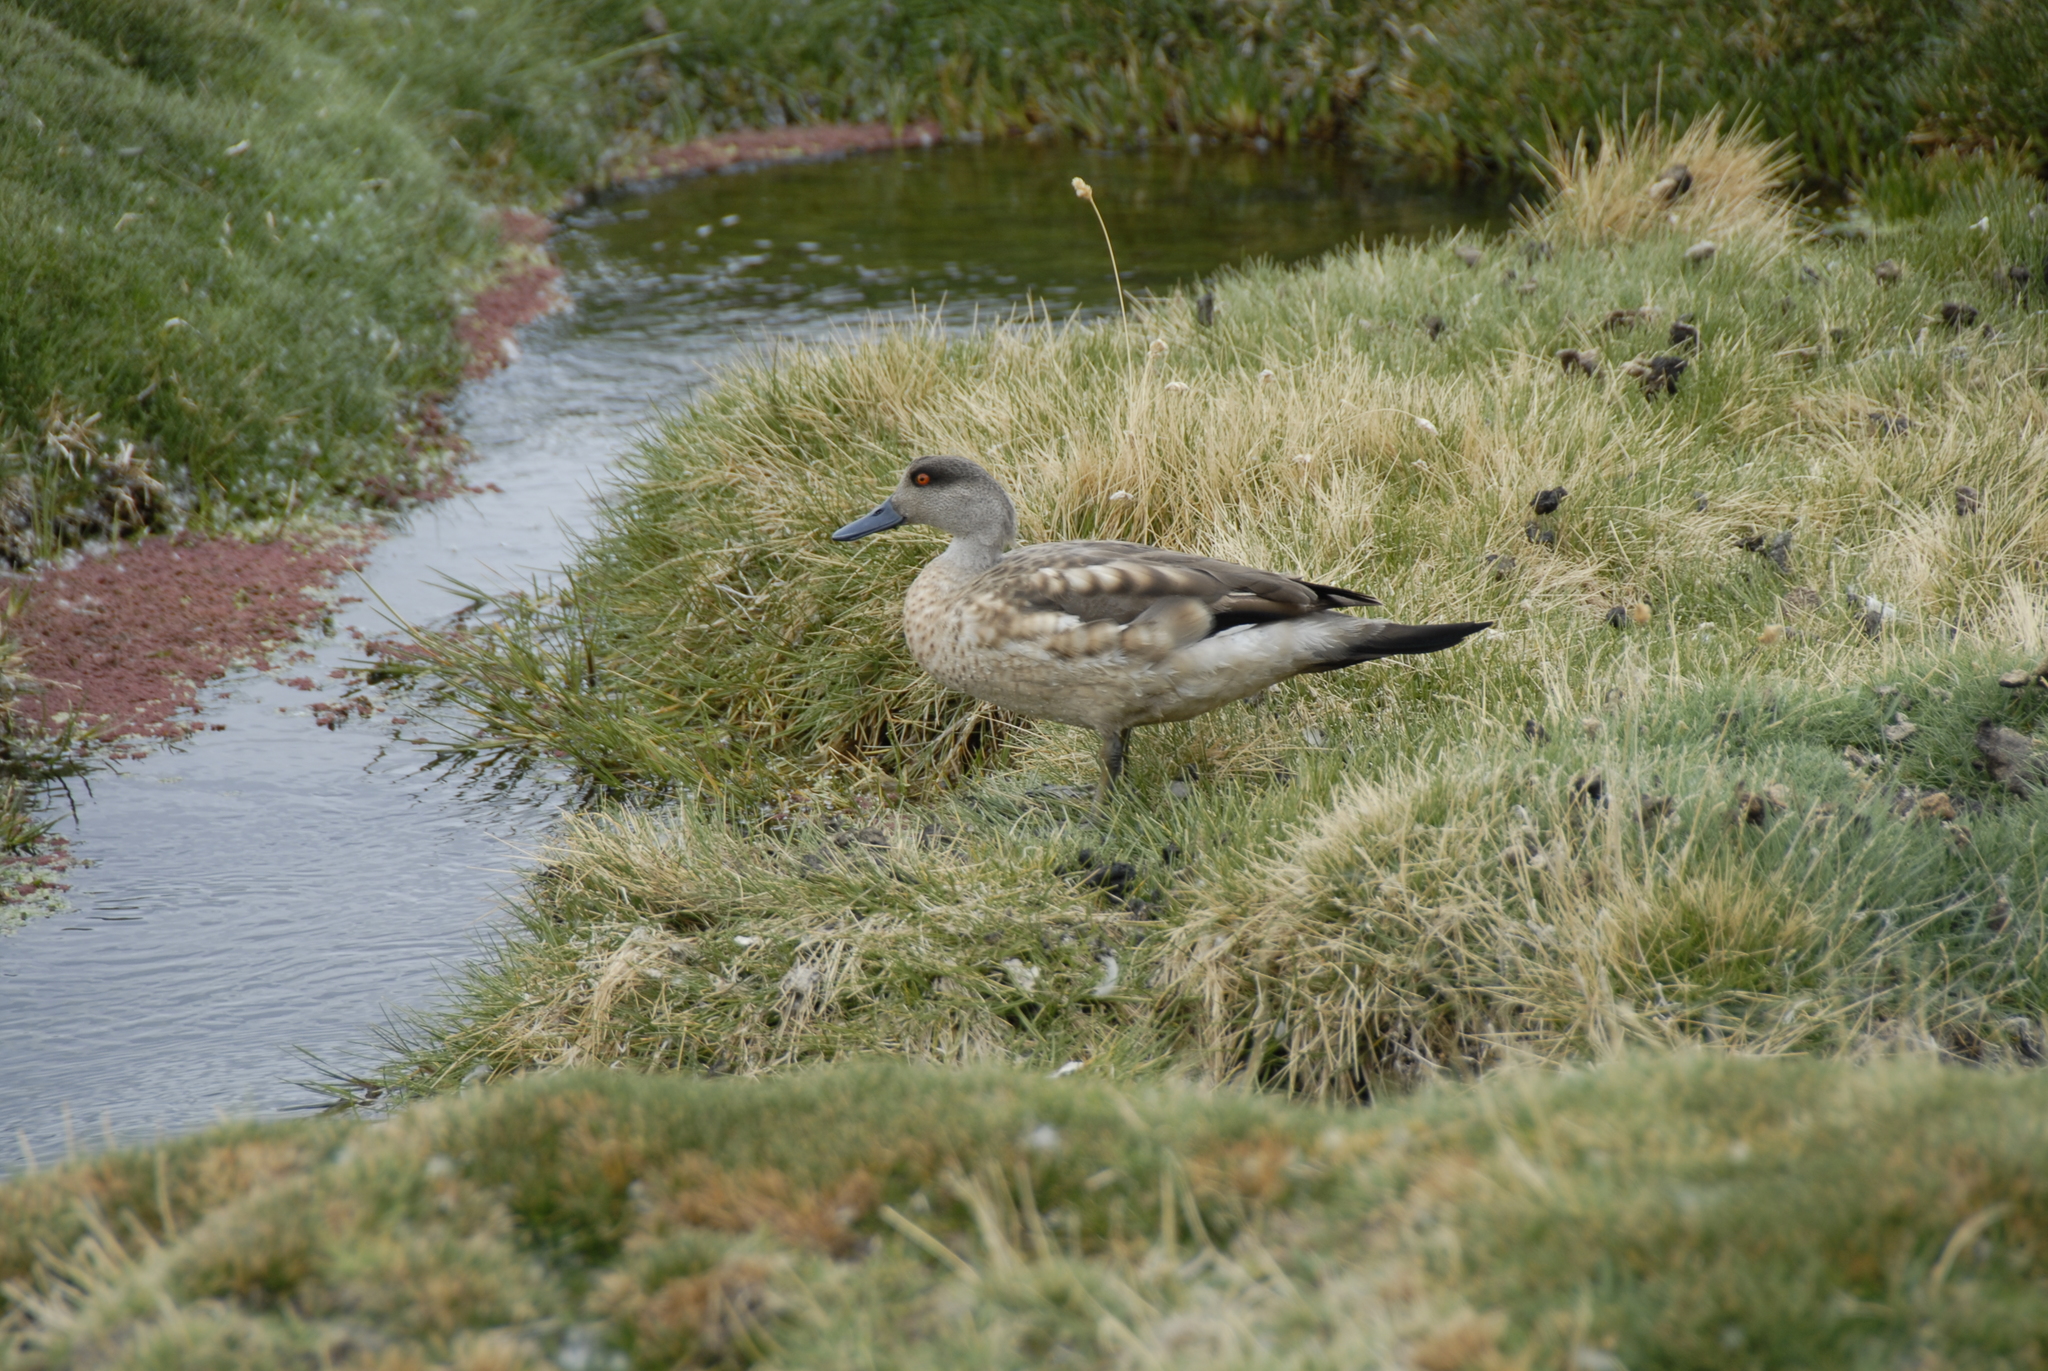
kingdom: Animalia
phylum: Chordata
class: Aves
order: Anseriformes
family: Anatidae
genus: Lophonetta
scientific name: Lophonetta specularioides
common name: Crested duck
